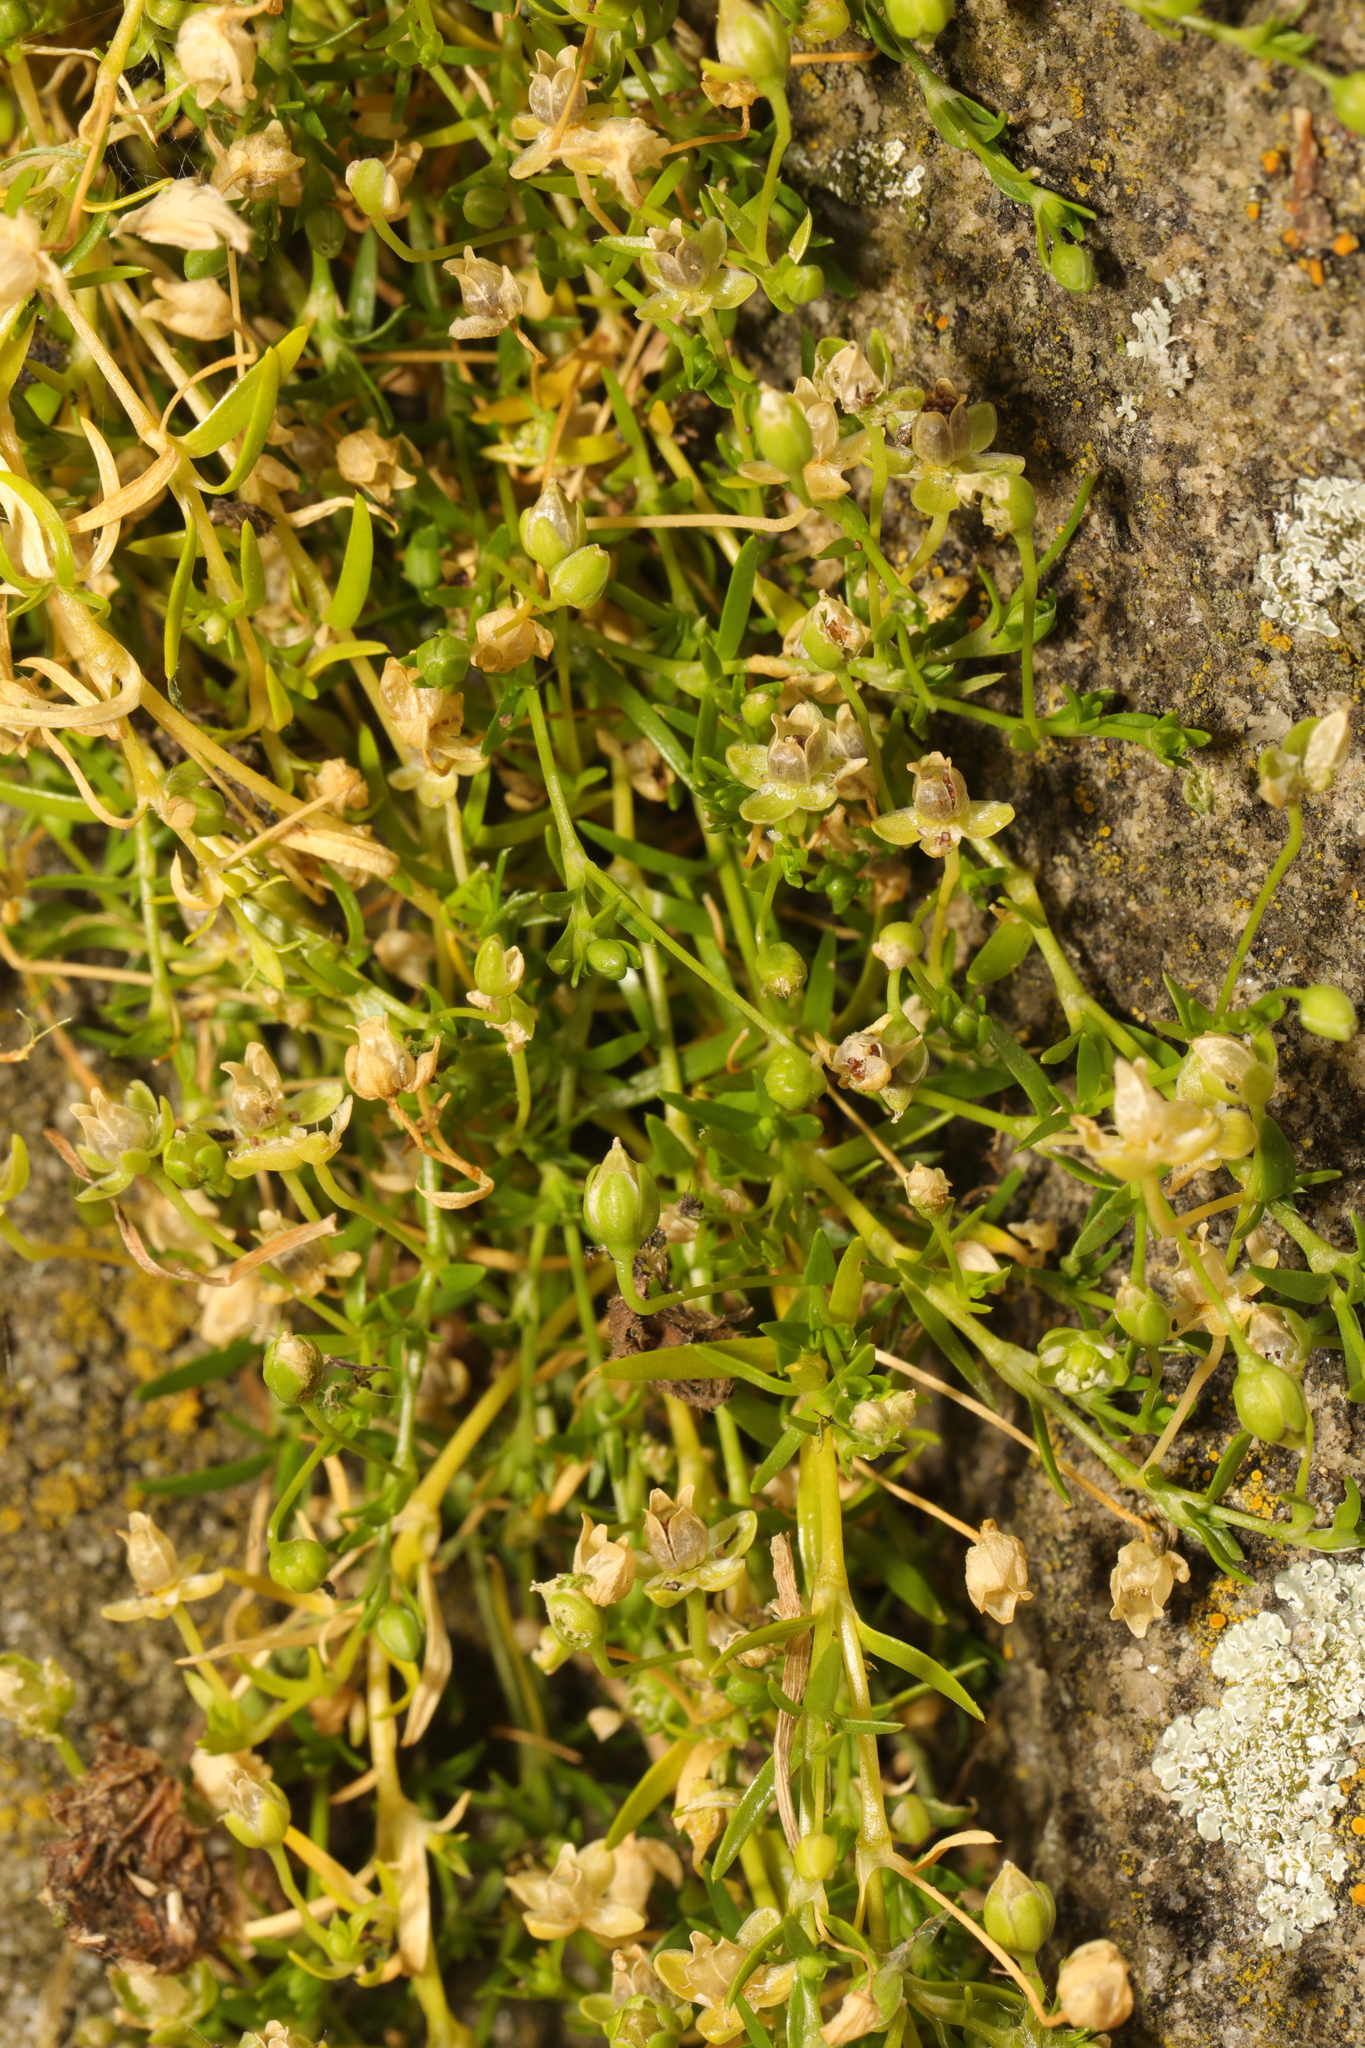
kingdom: Plantae
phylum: Tracheophyta
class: Magnoliopsida
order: Caryophyllales
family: Caryophyllaceae
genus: Sagina
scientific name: Sagina procumbens
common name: Procumbent pearlwort
